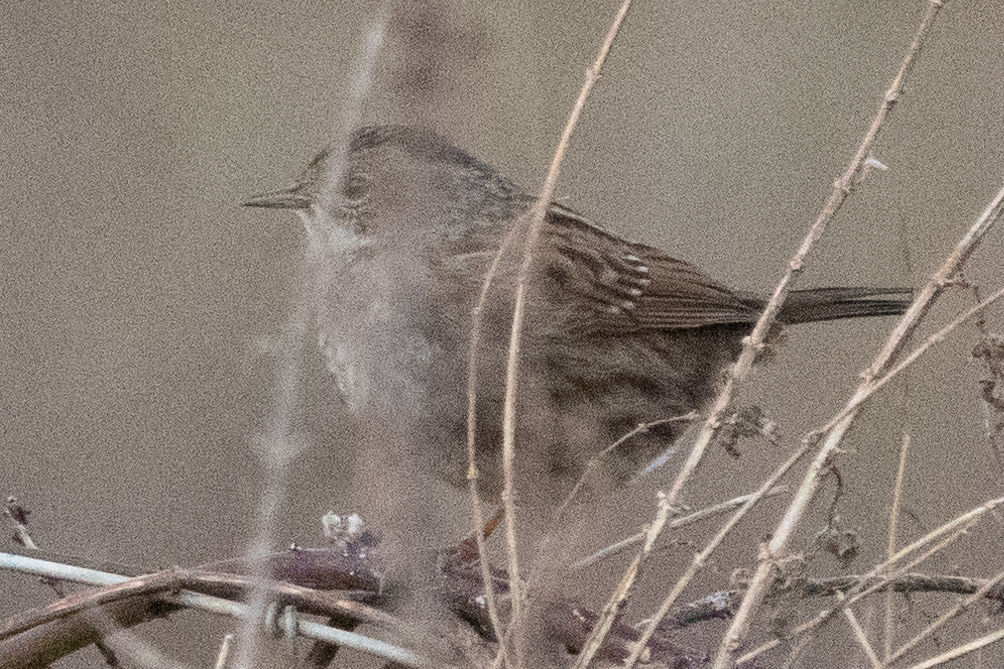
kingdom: Animalia
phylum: Chordata
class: Aves
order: Passeriformes
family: Prunellidae
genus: Prunella
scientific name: Prunella modularis
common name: Dunnock
